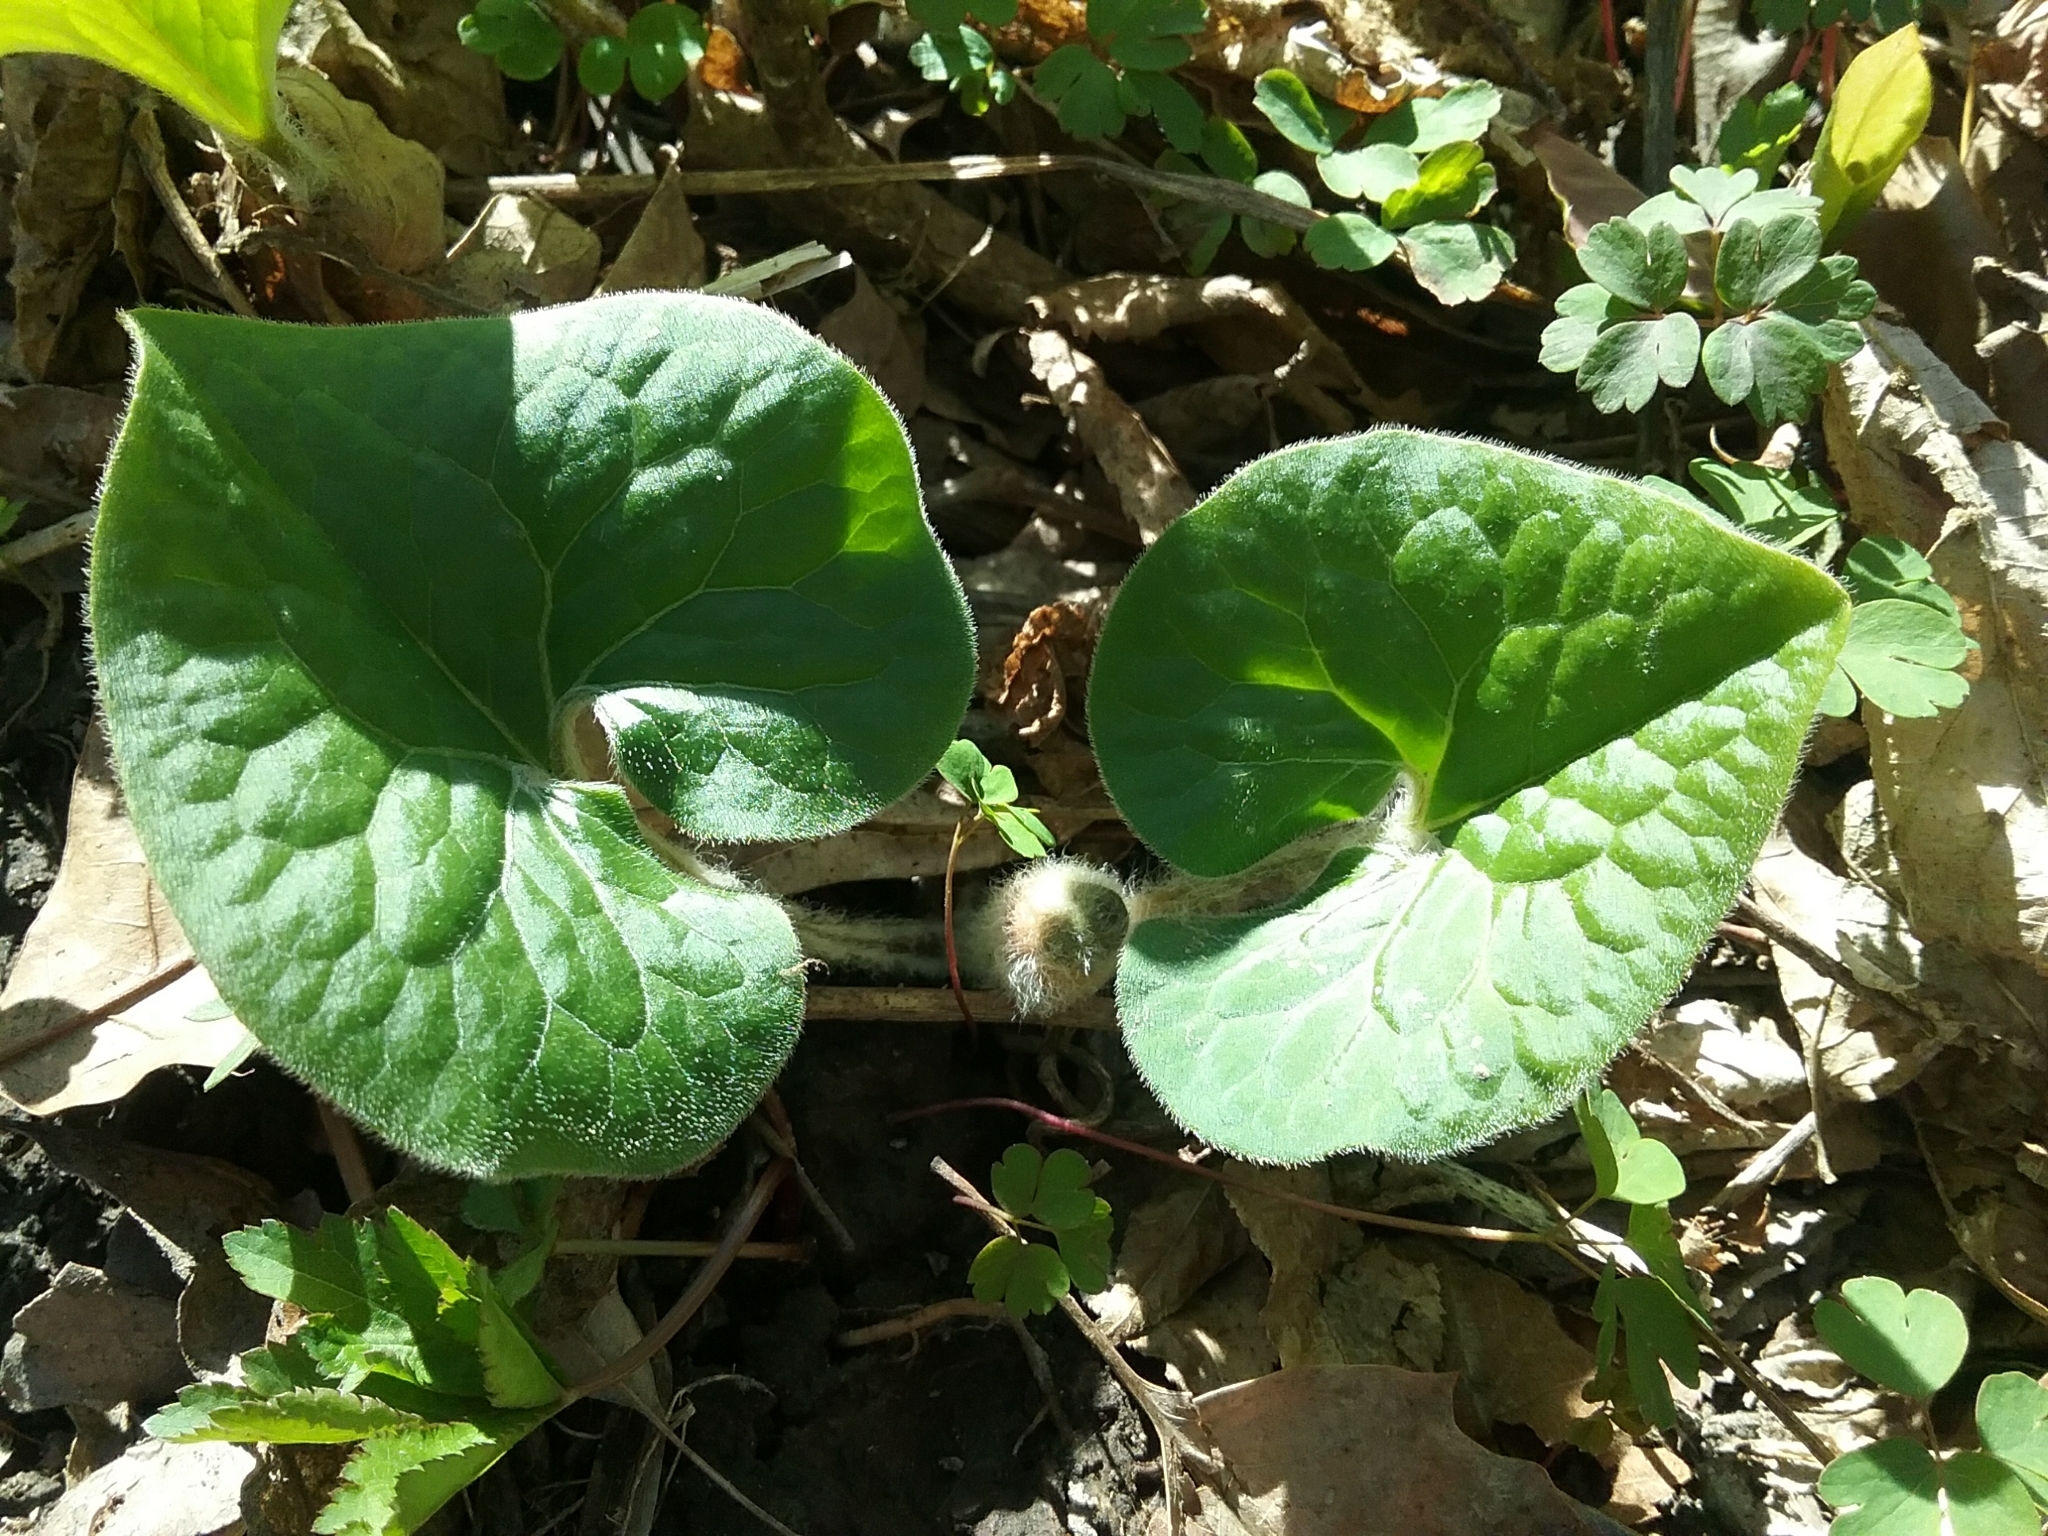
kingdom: Plantae
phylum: Tracheophyta
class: Magnoliopsida
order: Piperales
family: Aristolochiaceae
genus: Asarum
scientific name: Asarum canadense
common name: Wild ginger
